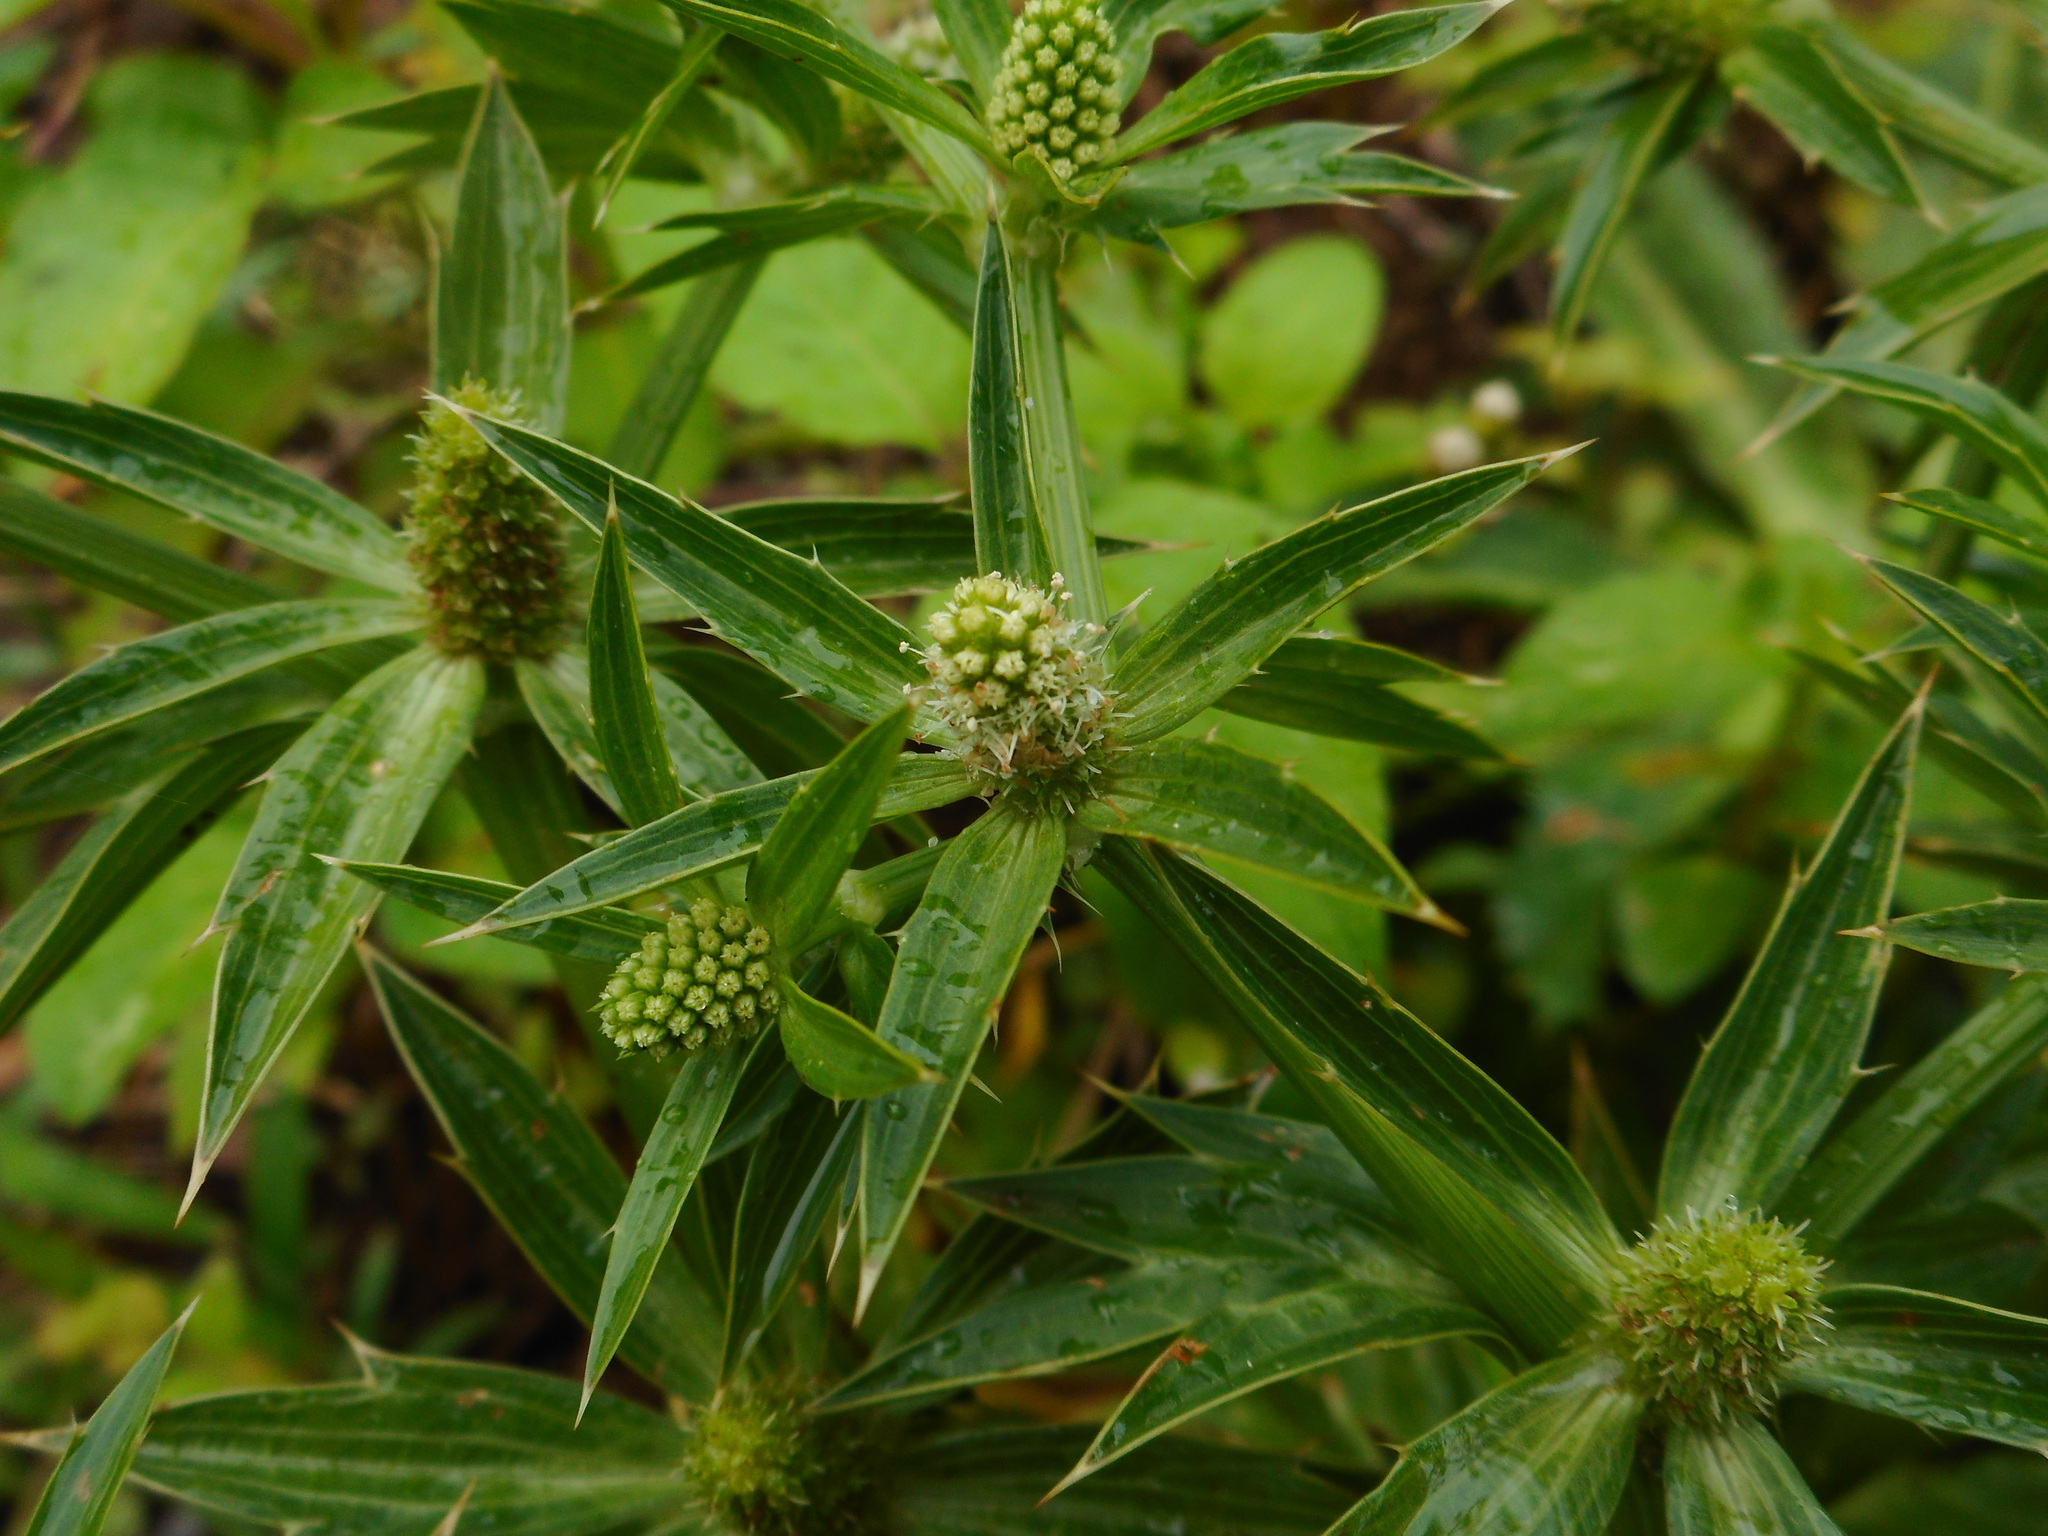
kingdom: Plantae
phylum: Tracheophyta
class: Magnoliopsida
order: Apiales
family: Apiaceae
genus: Eryngium
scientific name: Eryngium foetidum
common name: Fitweed
